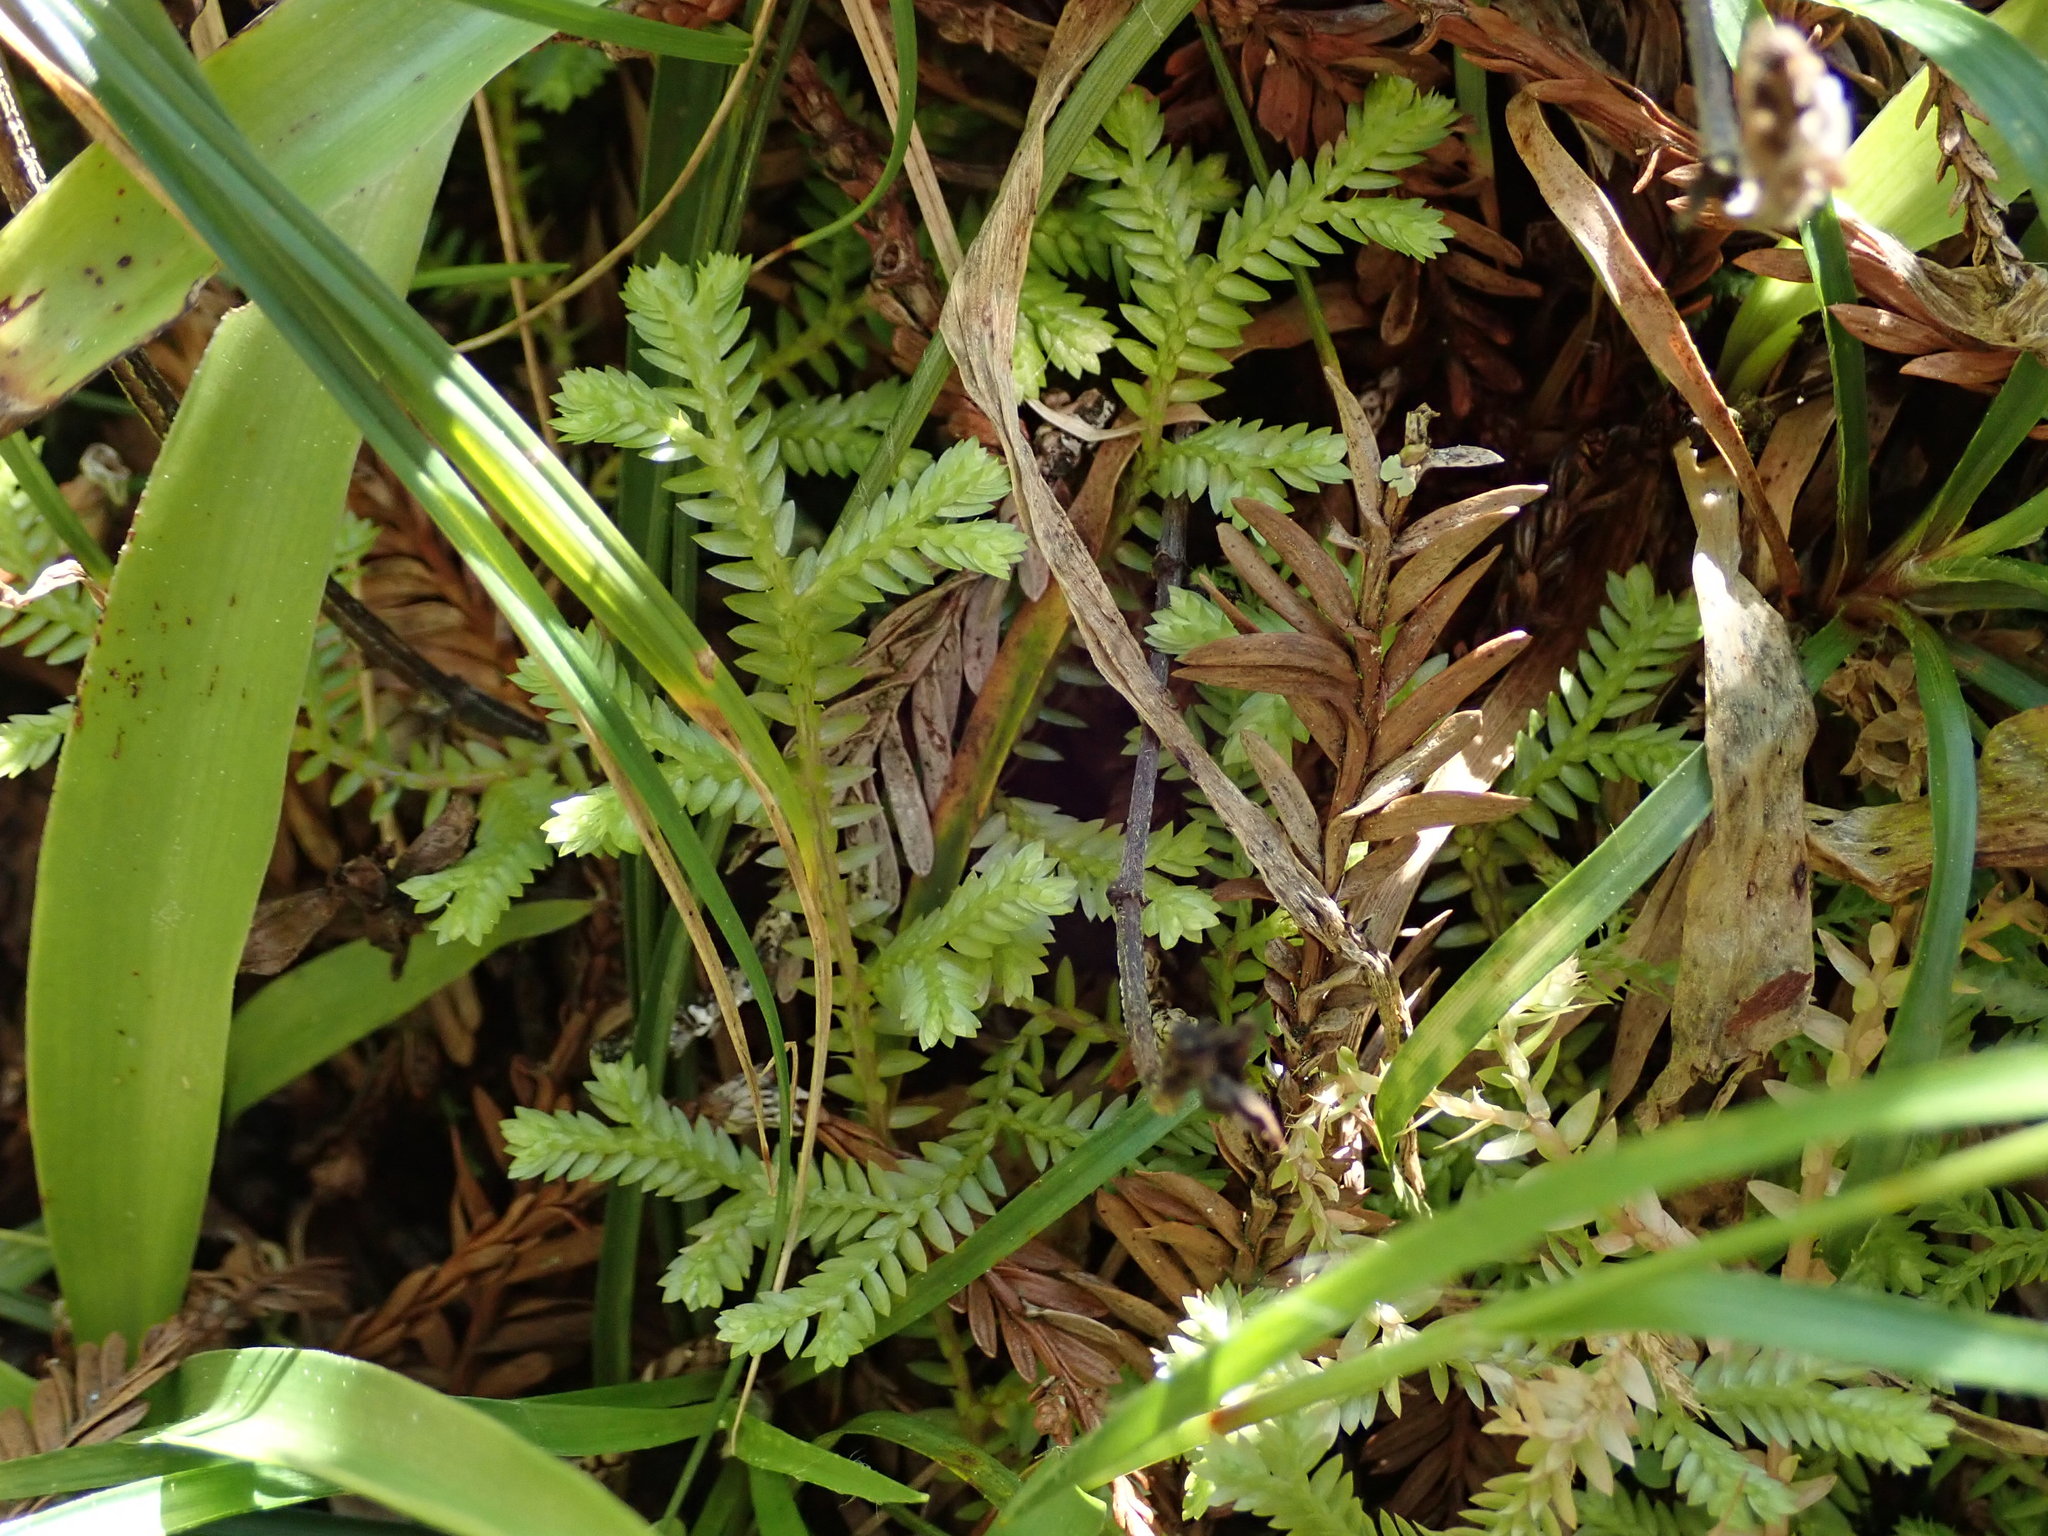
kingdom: Plantae
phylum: Tracheophyta
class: Lycopodiopsida
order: Selaginellales
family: Selaginellaceae
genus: Selaginella
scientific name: Selaginella kraussiana
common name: Krauss' spikemoss
